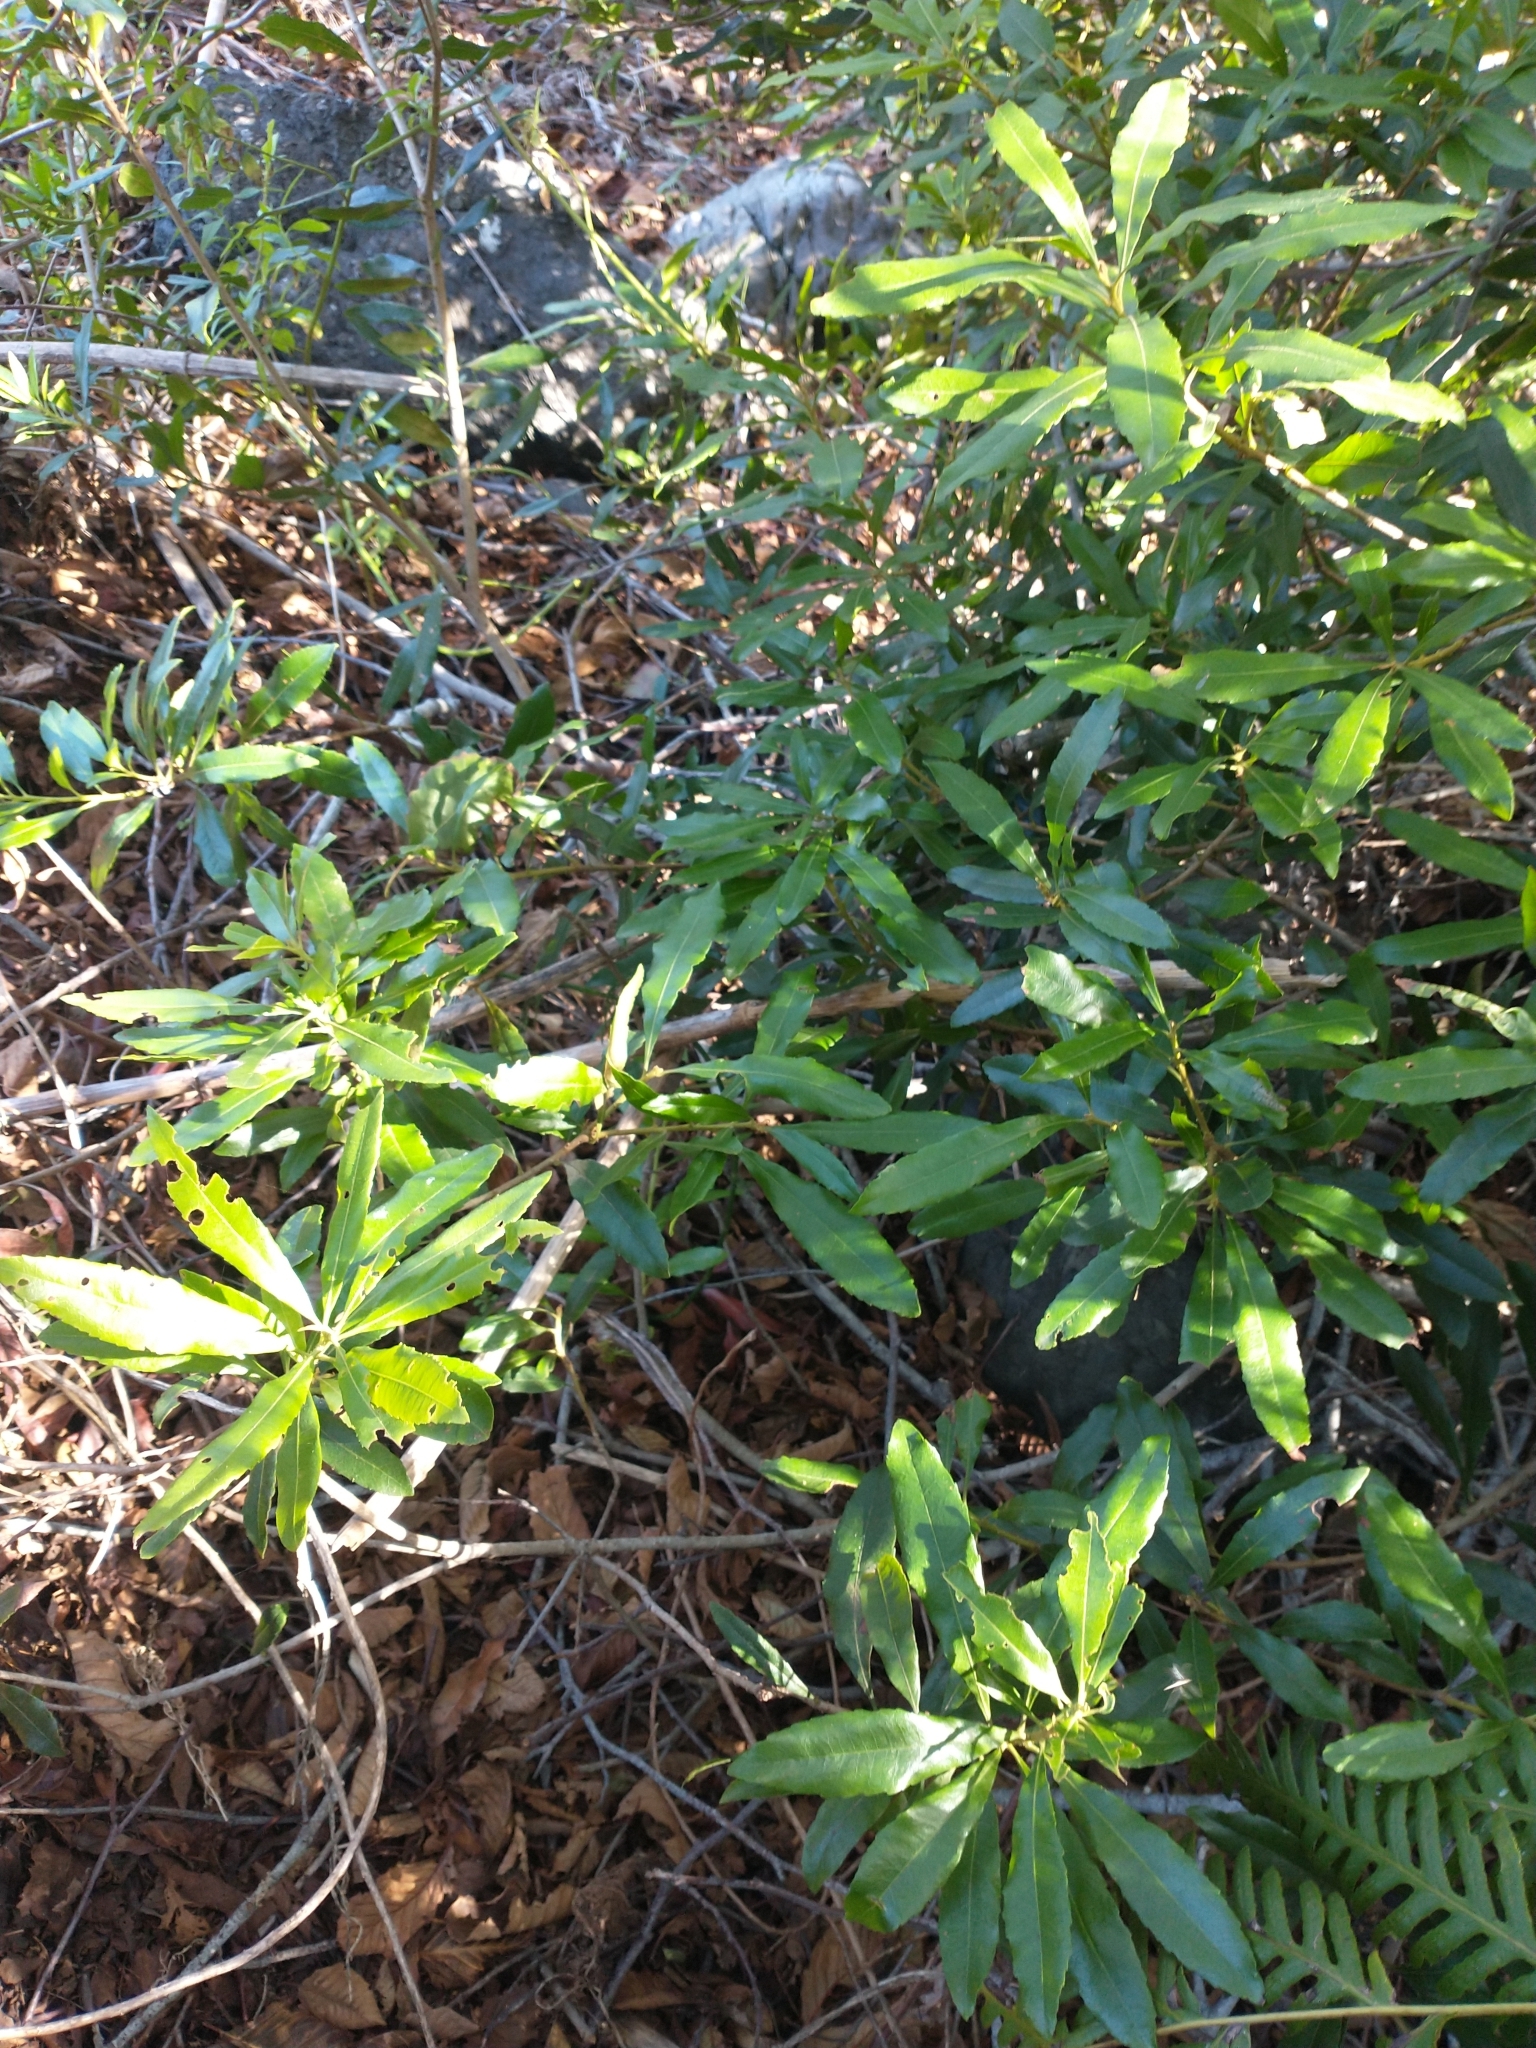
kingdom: Plantae
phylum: Tracheophyta
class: Magnoliopsida
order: Fagales
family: Myricaceae
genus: Morella
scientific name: Morella californica
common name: California wax-myrtle
